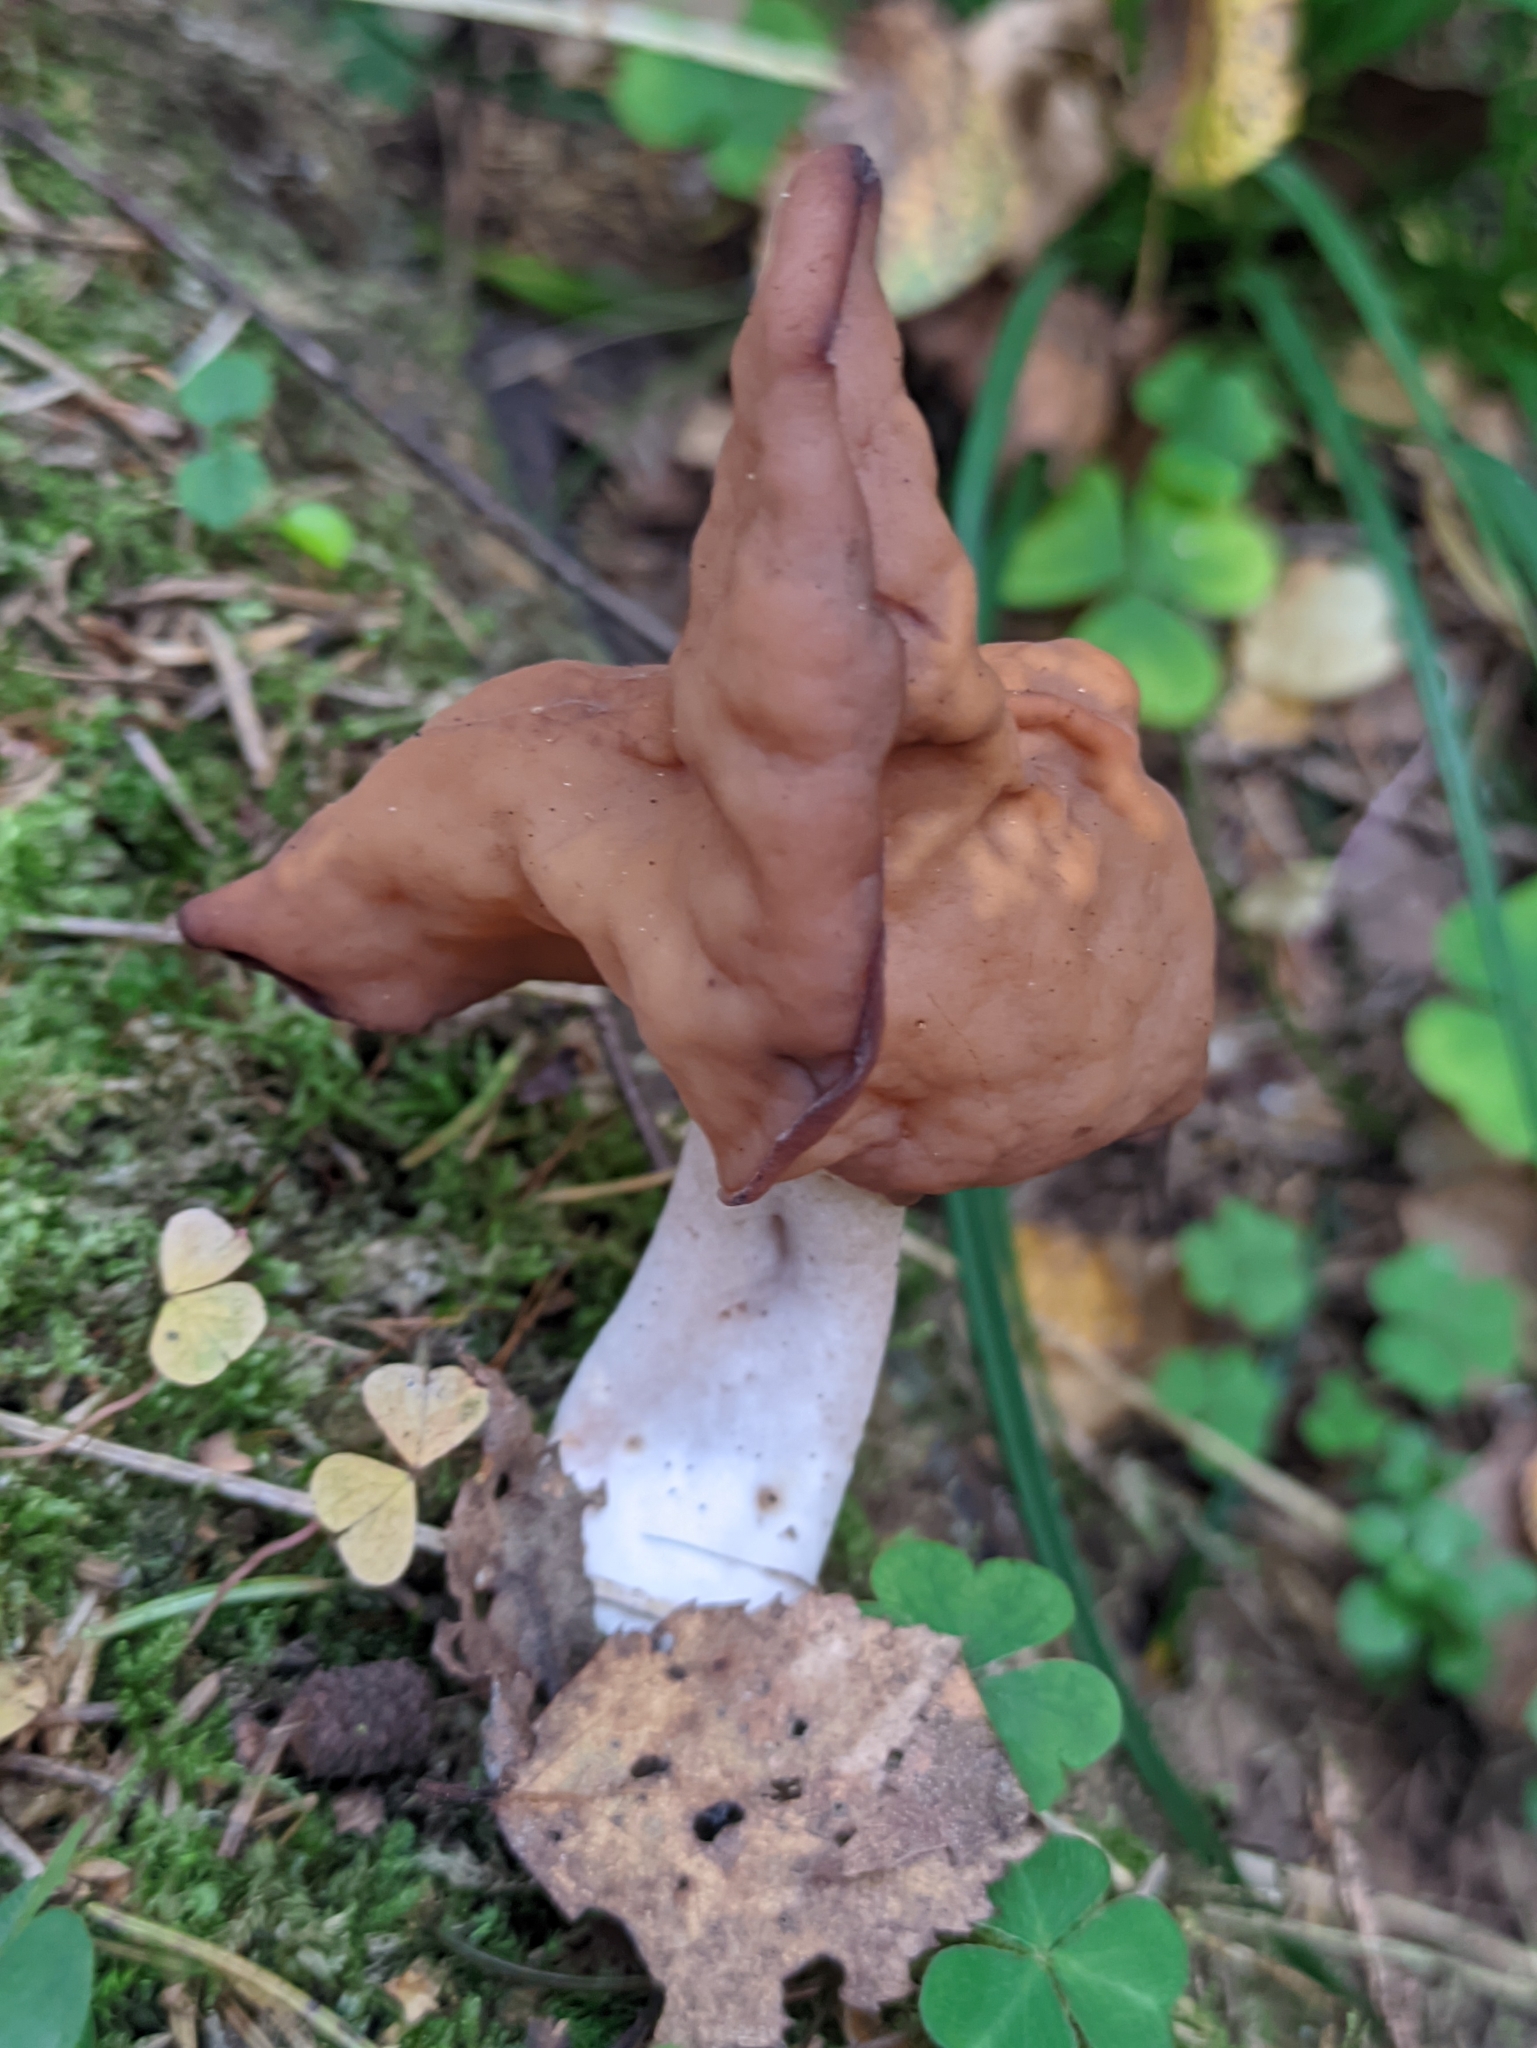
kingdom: Fungi
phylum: Ascomycota
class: Pezizomycetes
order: Pezizales
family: Discinaceae
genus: Gyromitra
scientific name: Gyromitra infula
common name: Pouched false morel
